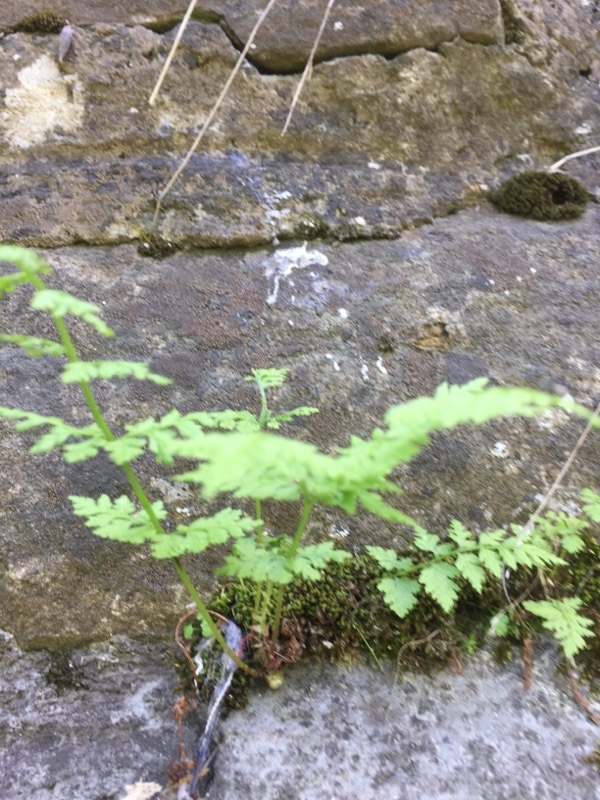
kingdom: Plantae
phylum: Tracheophyta
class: Polypodiopsida
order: Polypodiales
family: Cystopteridaceae
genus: Cystopteris
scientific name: Cystopteris fragilis
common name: Brittle bladder fern
